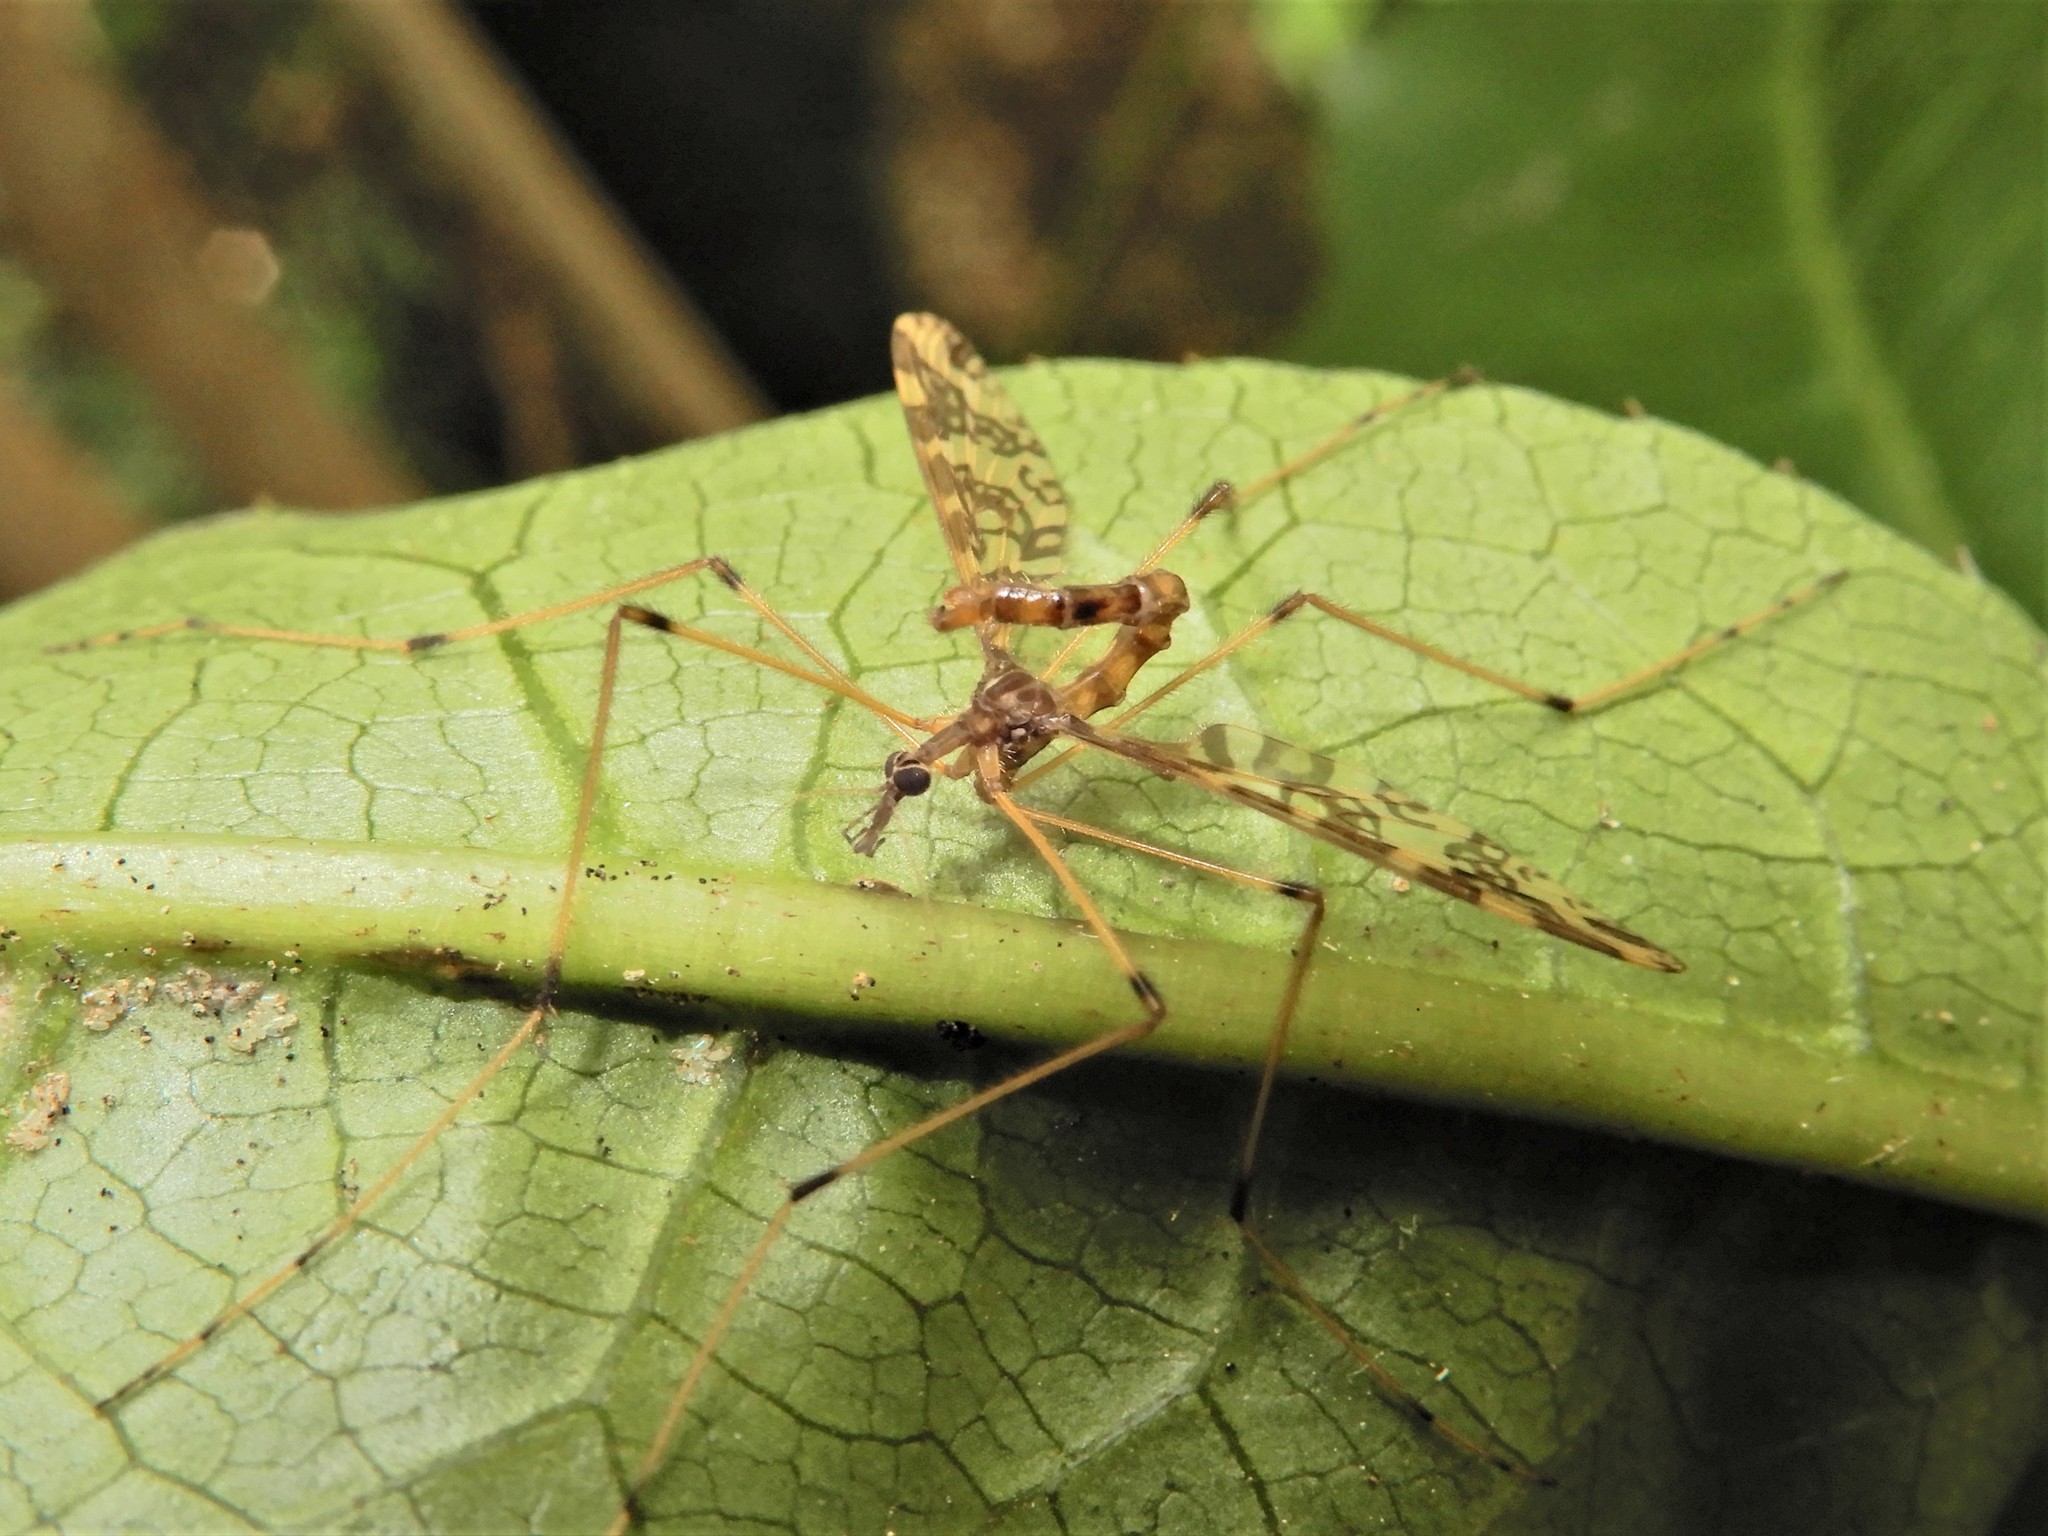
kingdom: Animalia
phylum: Arthropoda
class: Insecta
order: Diptera
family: Tanyderidae
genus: Tanyderus
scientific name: Tanyderus annuliferus
